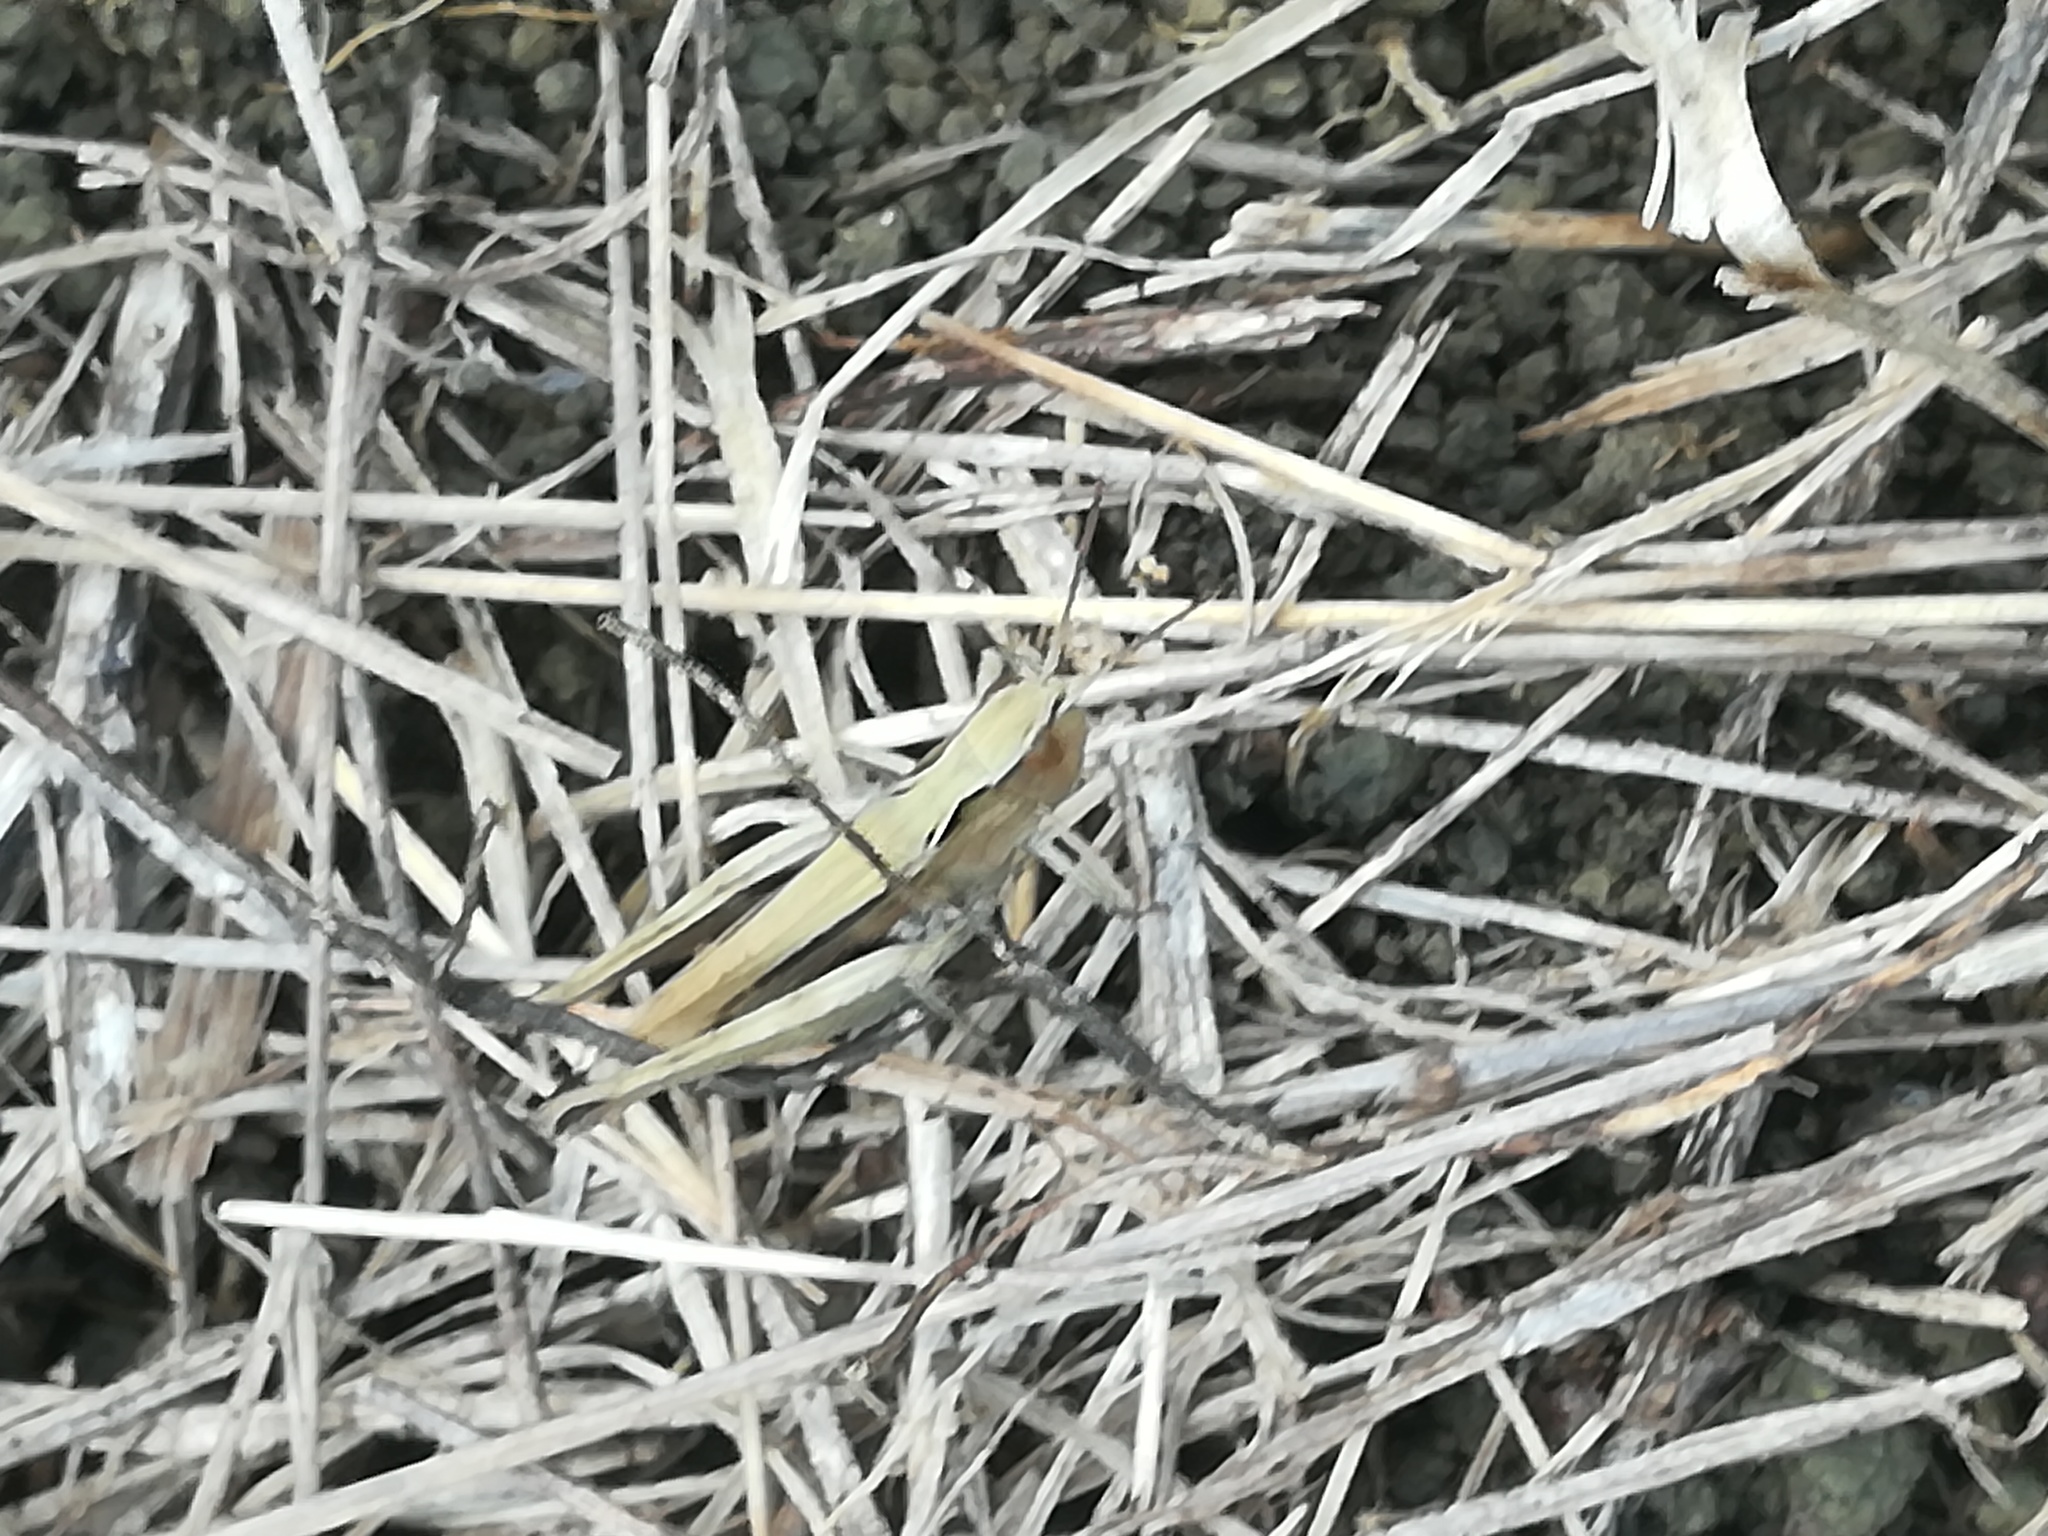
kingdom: Animalia
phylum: Arthropoda
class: Insecta
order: Orthoptera
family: Acrididae
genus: Chorthippus
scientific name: Chorthippus dorsatus
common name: Steppe grasshopper
